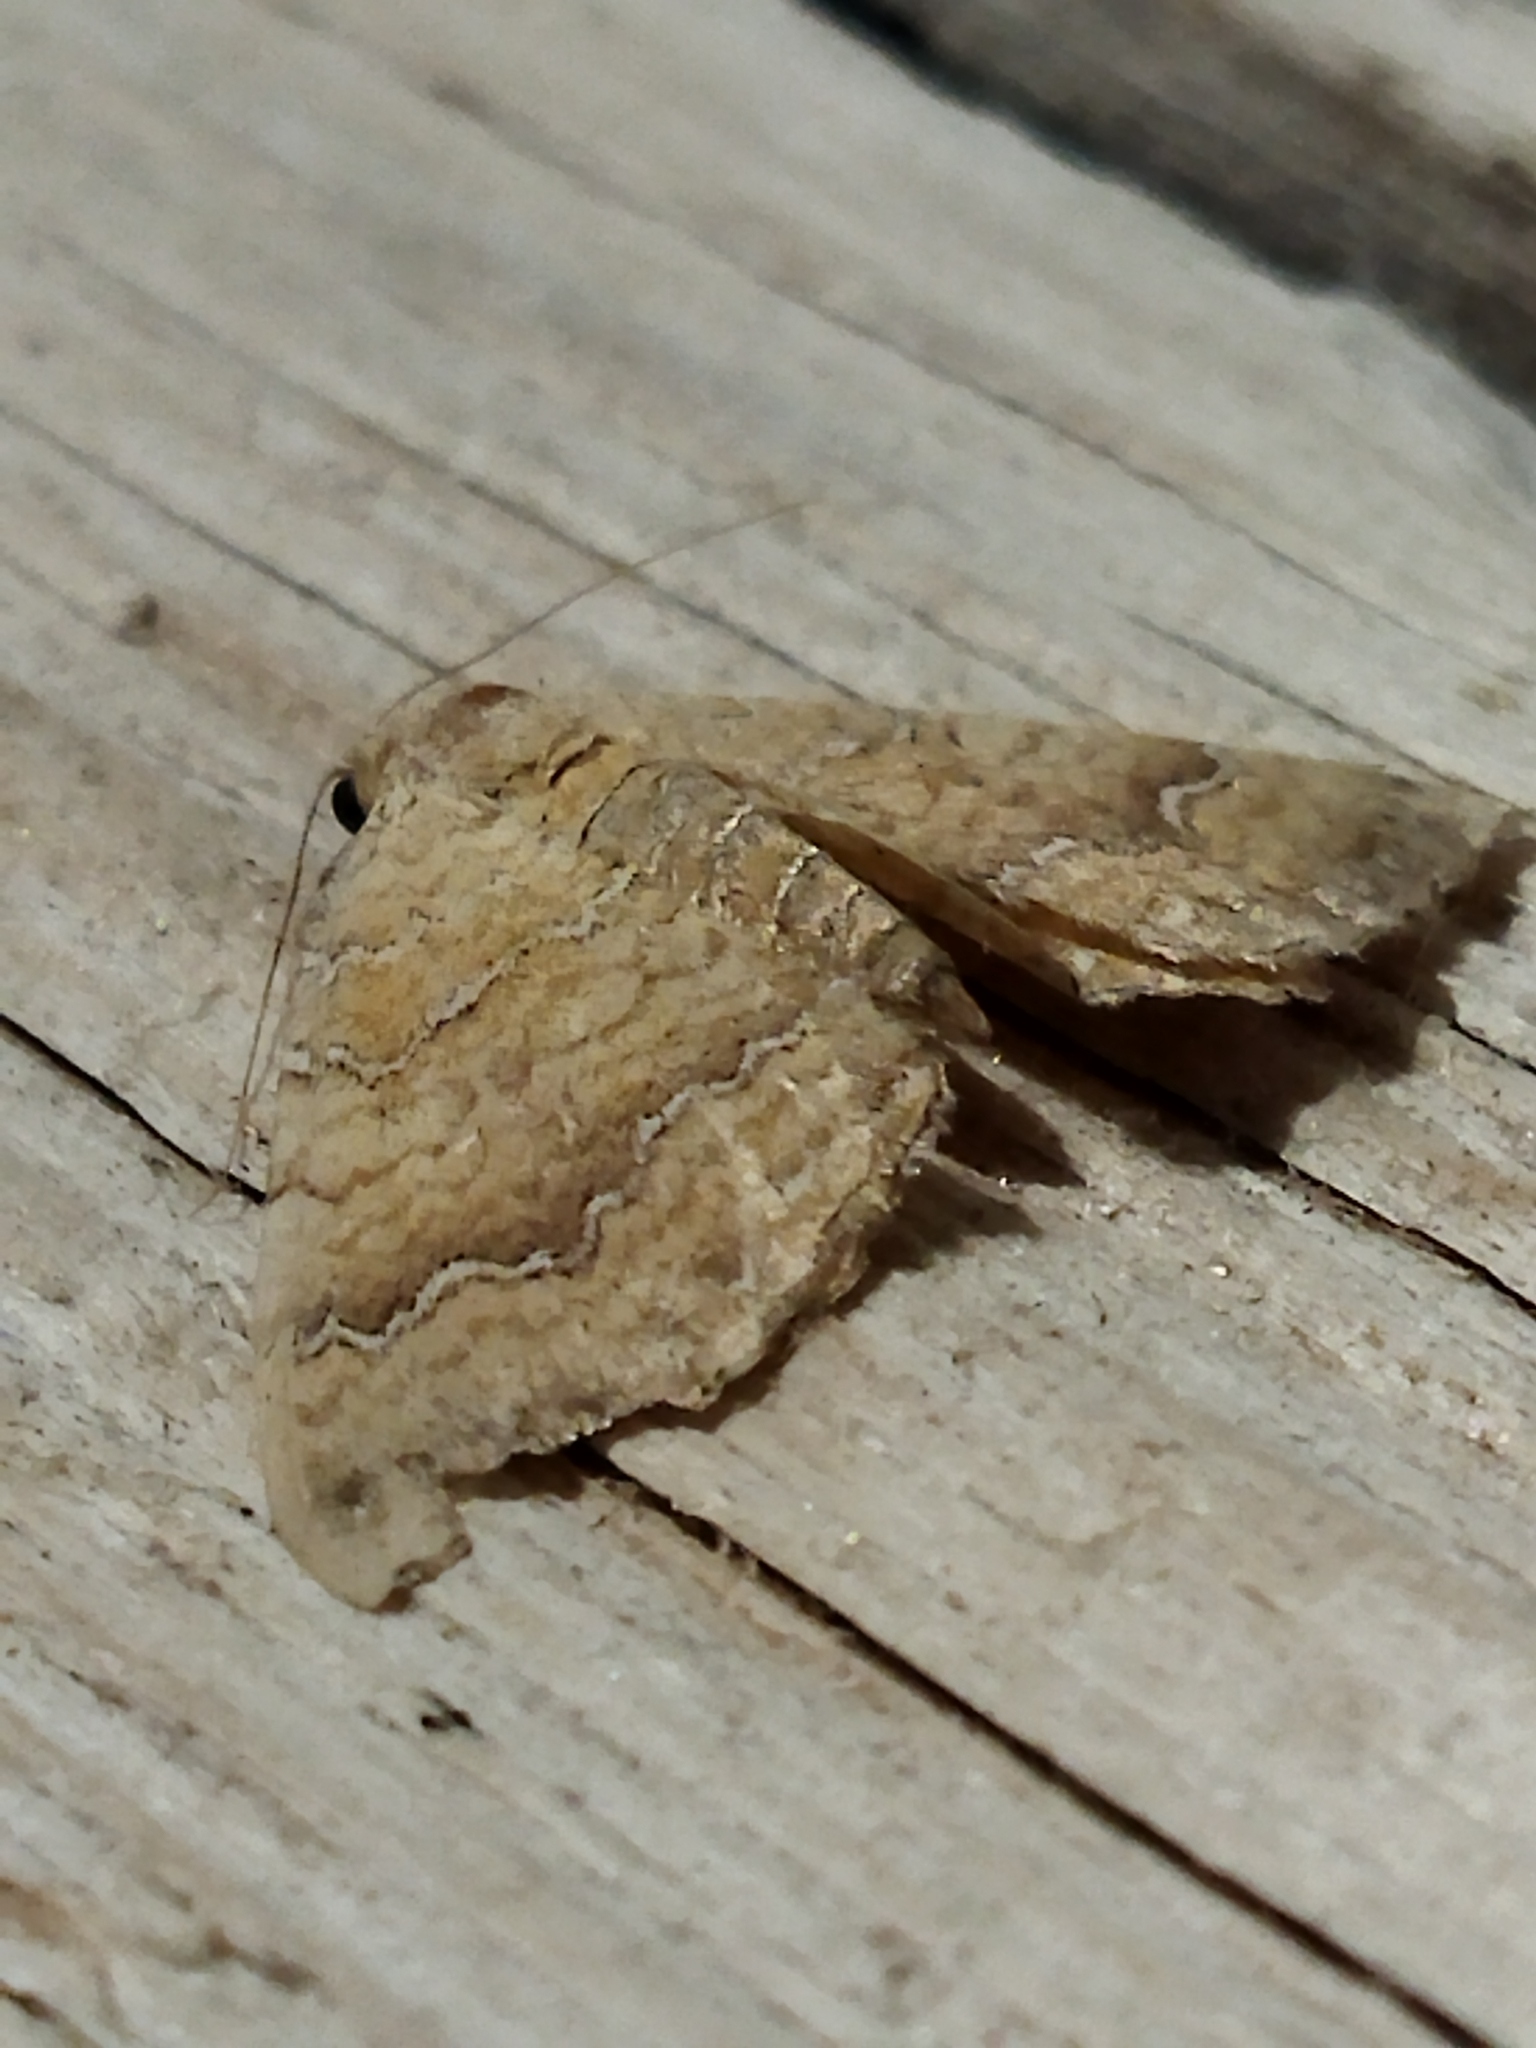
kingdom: Animalia
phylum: Arthropoda
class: Insecta
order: Lepidoptera
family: Geometridae
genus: Camptogramma
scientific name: Camptogramma bilineata
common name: Yellow shell
